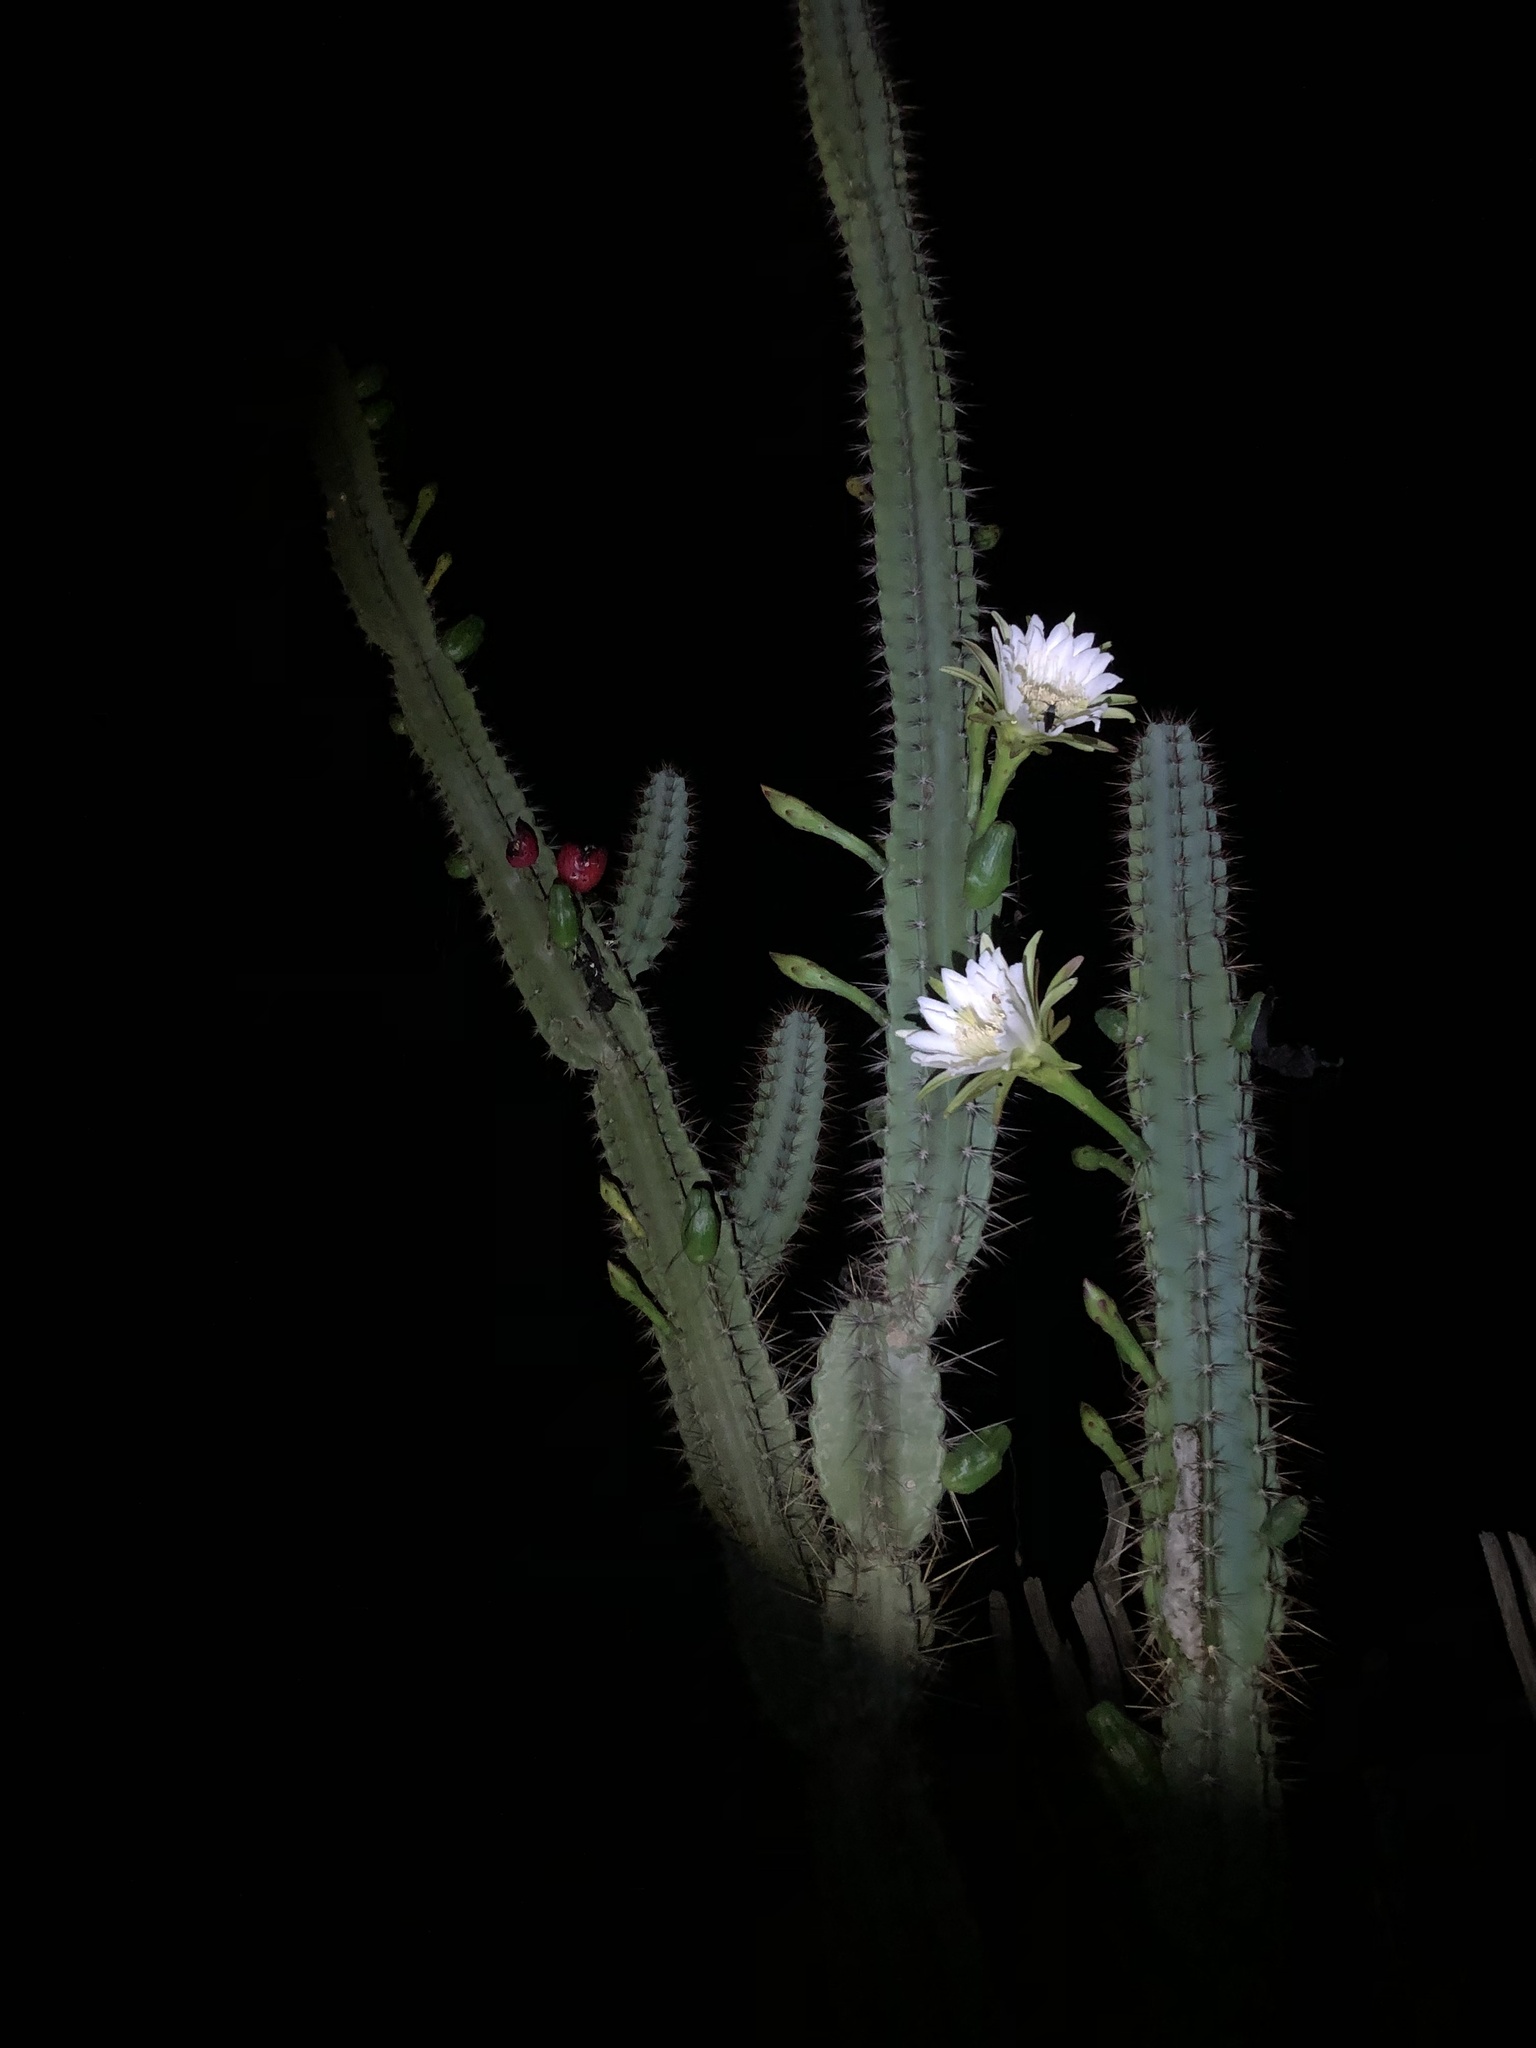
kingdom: Plantae
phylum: Tracheophyta
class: Magnoliopsida
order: Caryophyllales
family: Cactaceae
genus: Cereus
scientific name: Cereus jamacaru
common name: Queen-of-the-night
